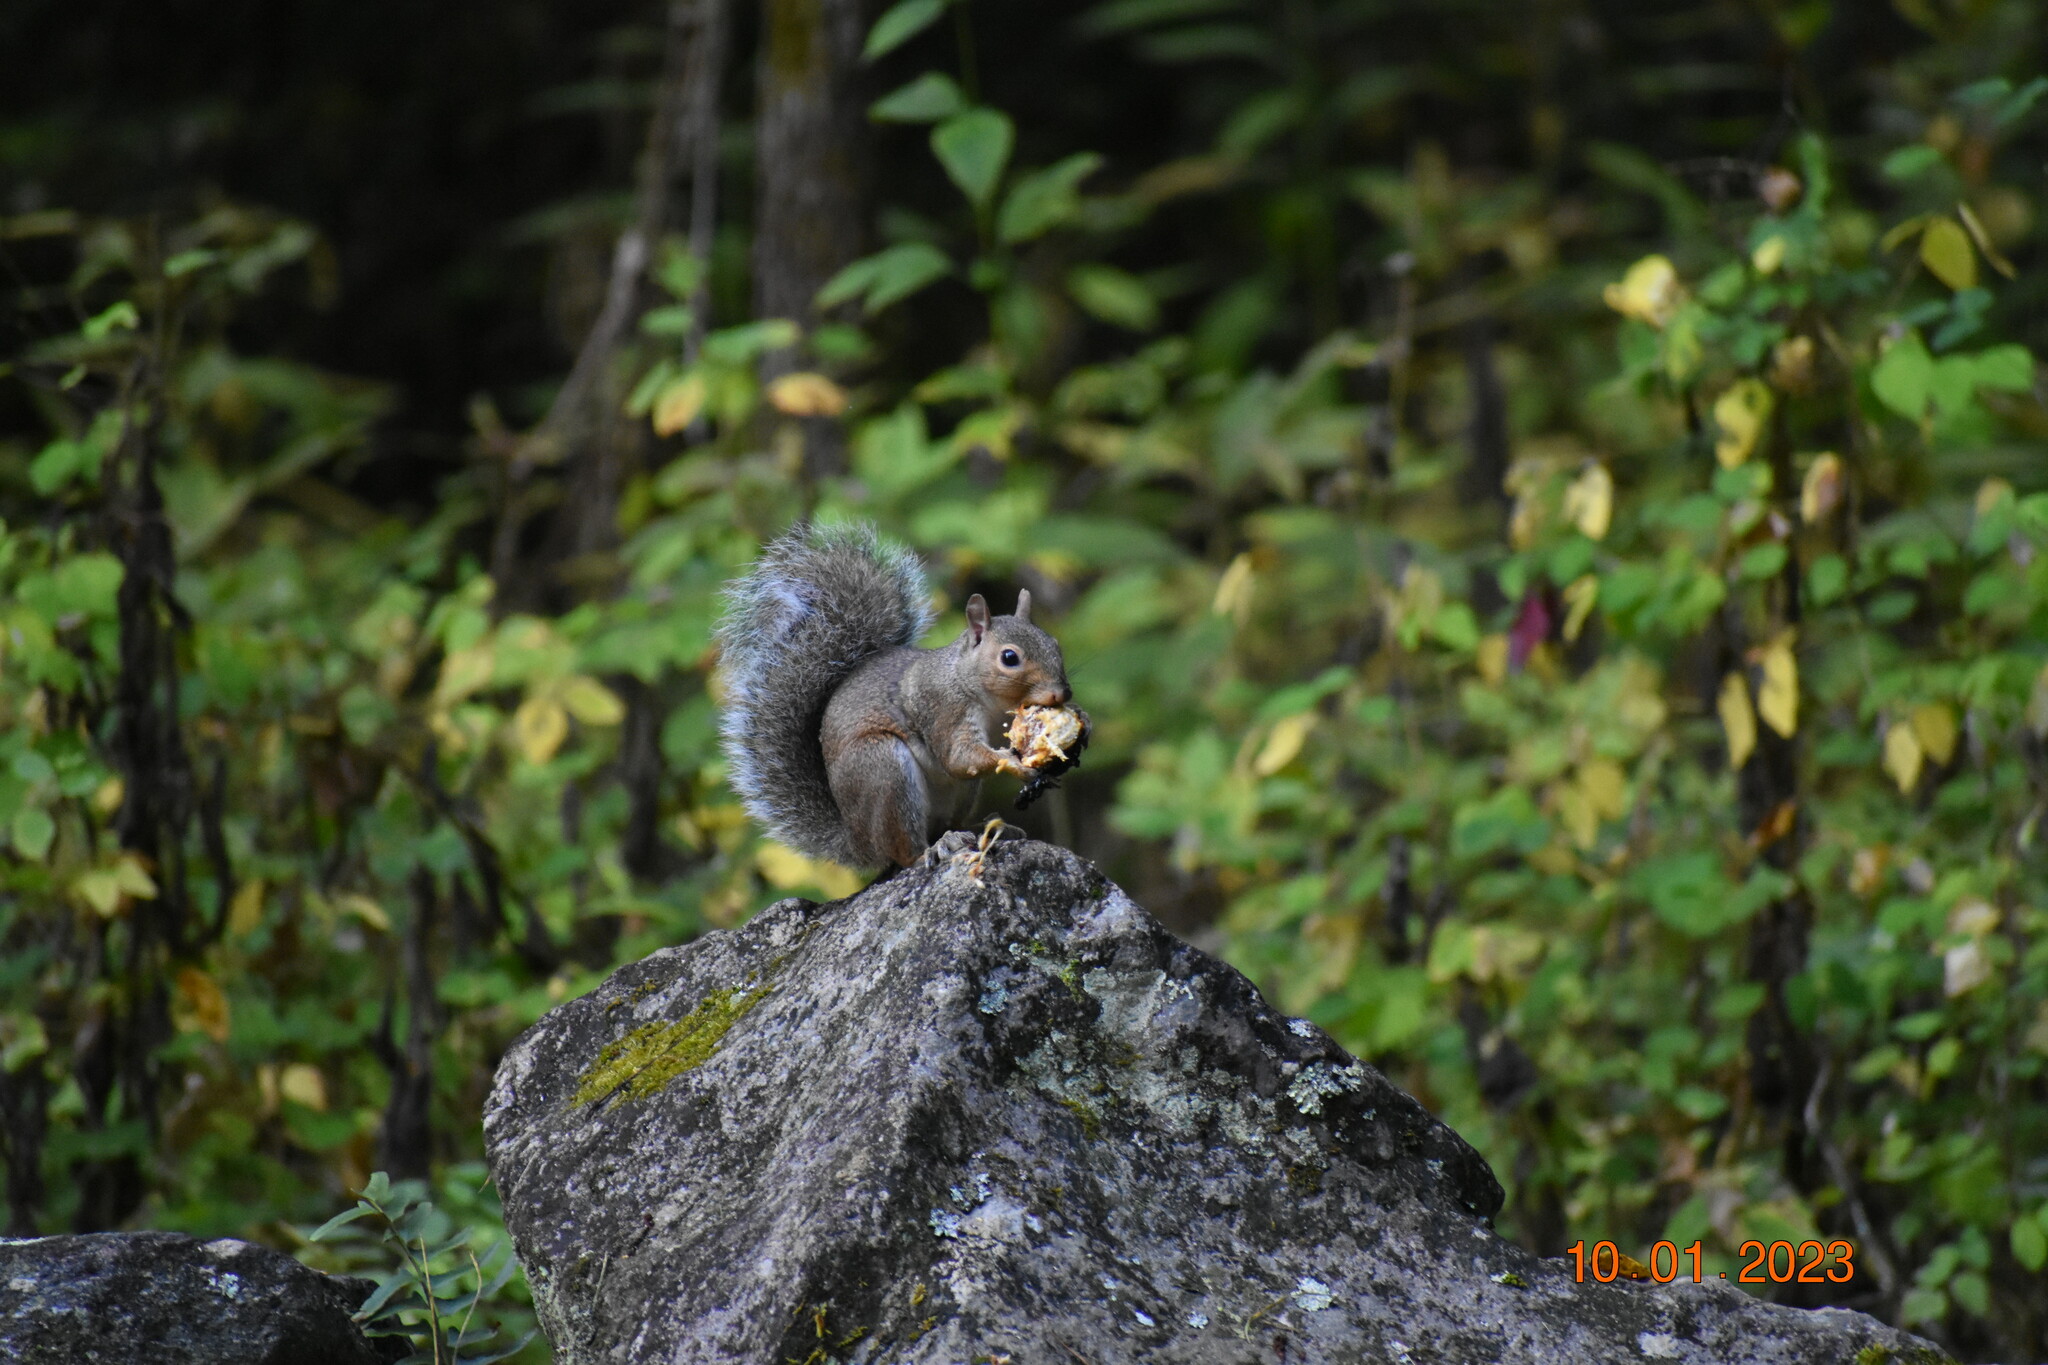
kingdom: Animalia
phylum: Chordata
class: Mammalia
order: Rodentia
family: Sciuridae
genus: Sciurus
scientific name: Sciurus carolinensis
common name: Eastern gray squirrel
